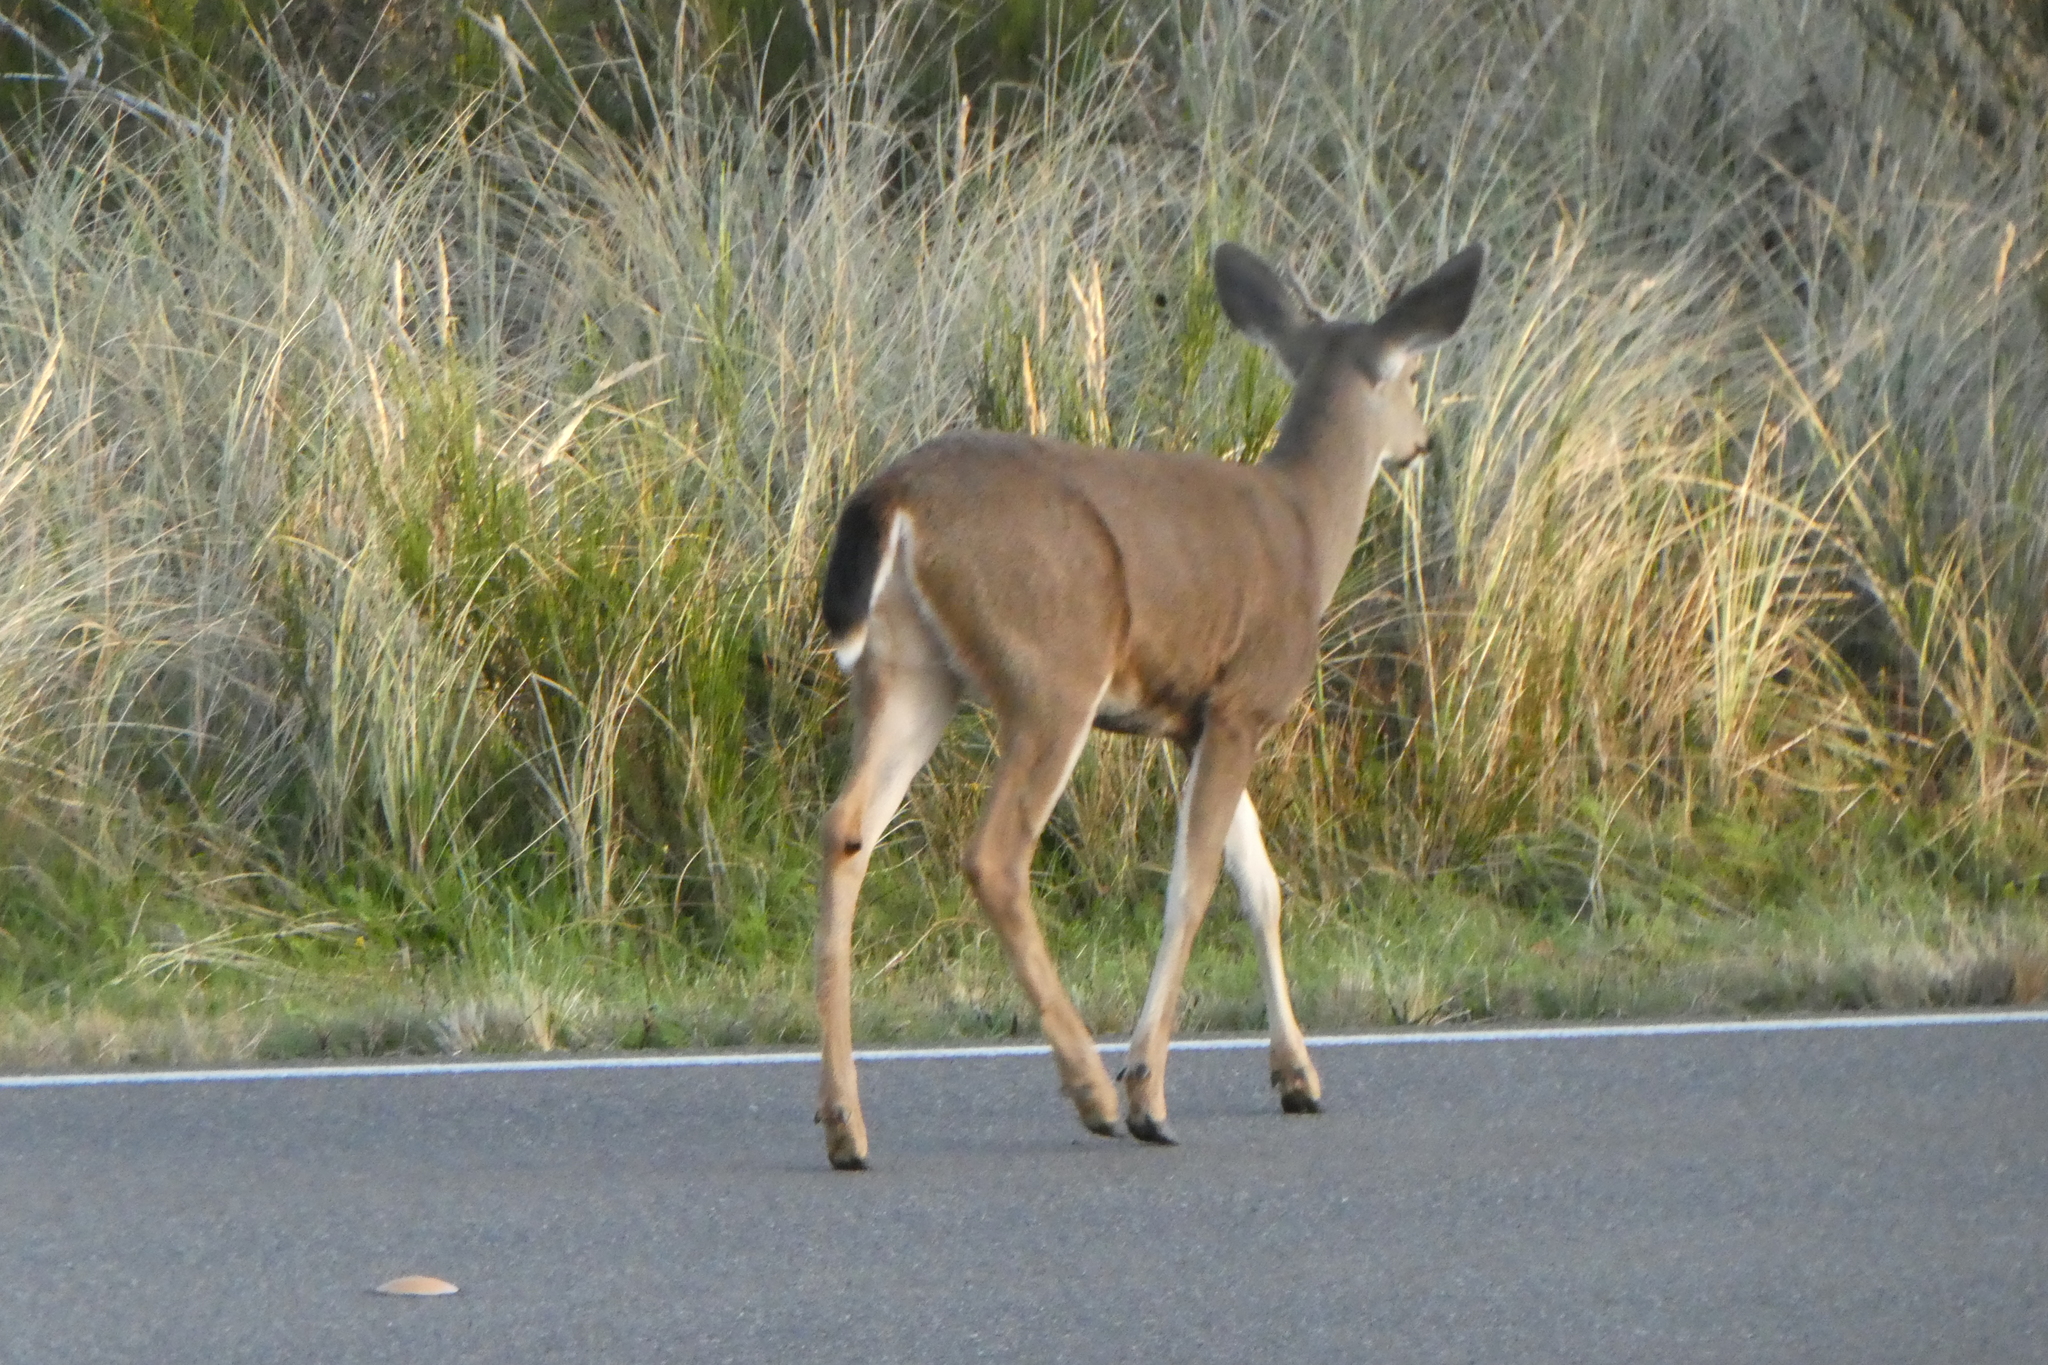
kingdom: Animalia
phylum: Chordata
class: Mammalia
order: Artiodactyla
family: Cervidae
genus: Odocoileus
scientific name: Odocoileus hemionus
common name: Mule deer
